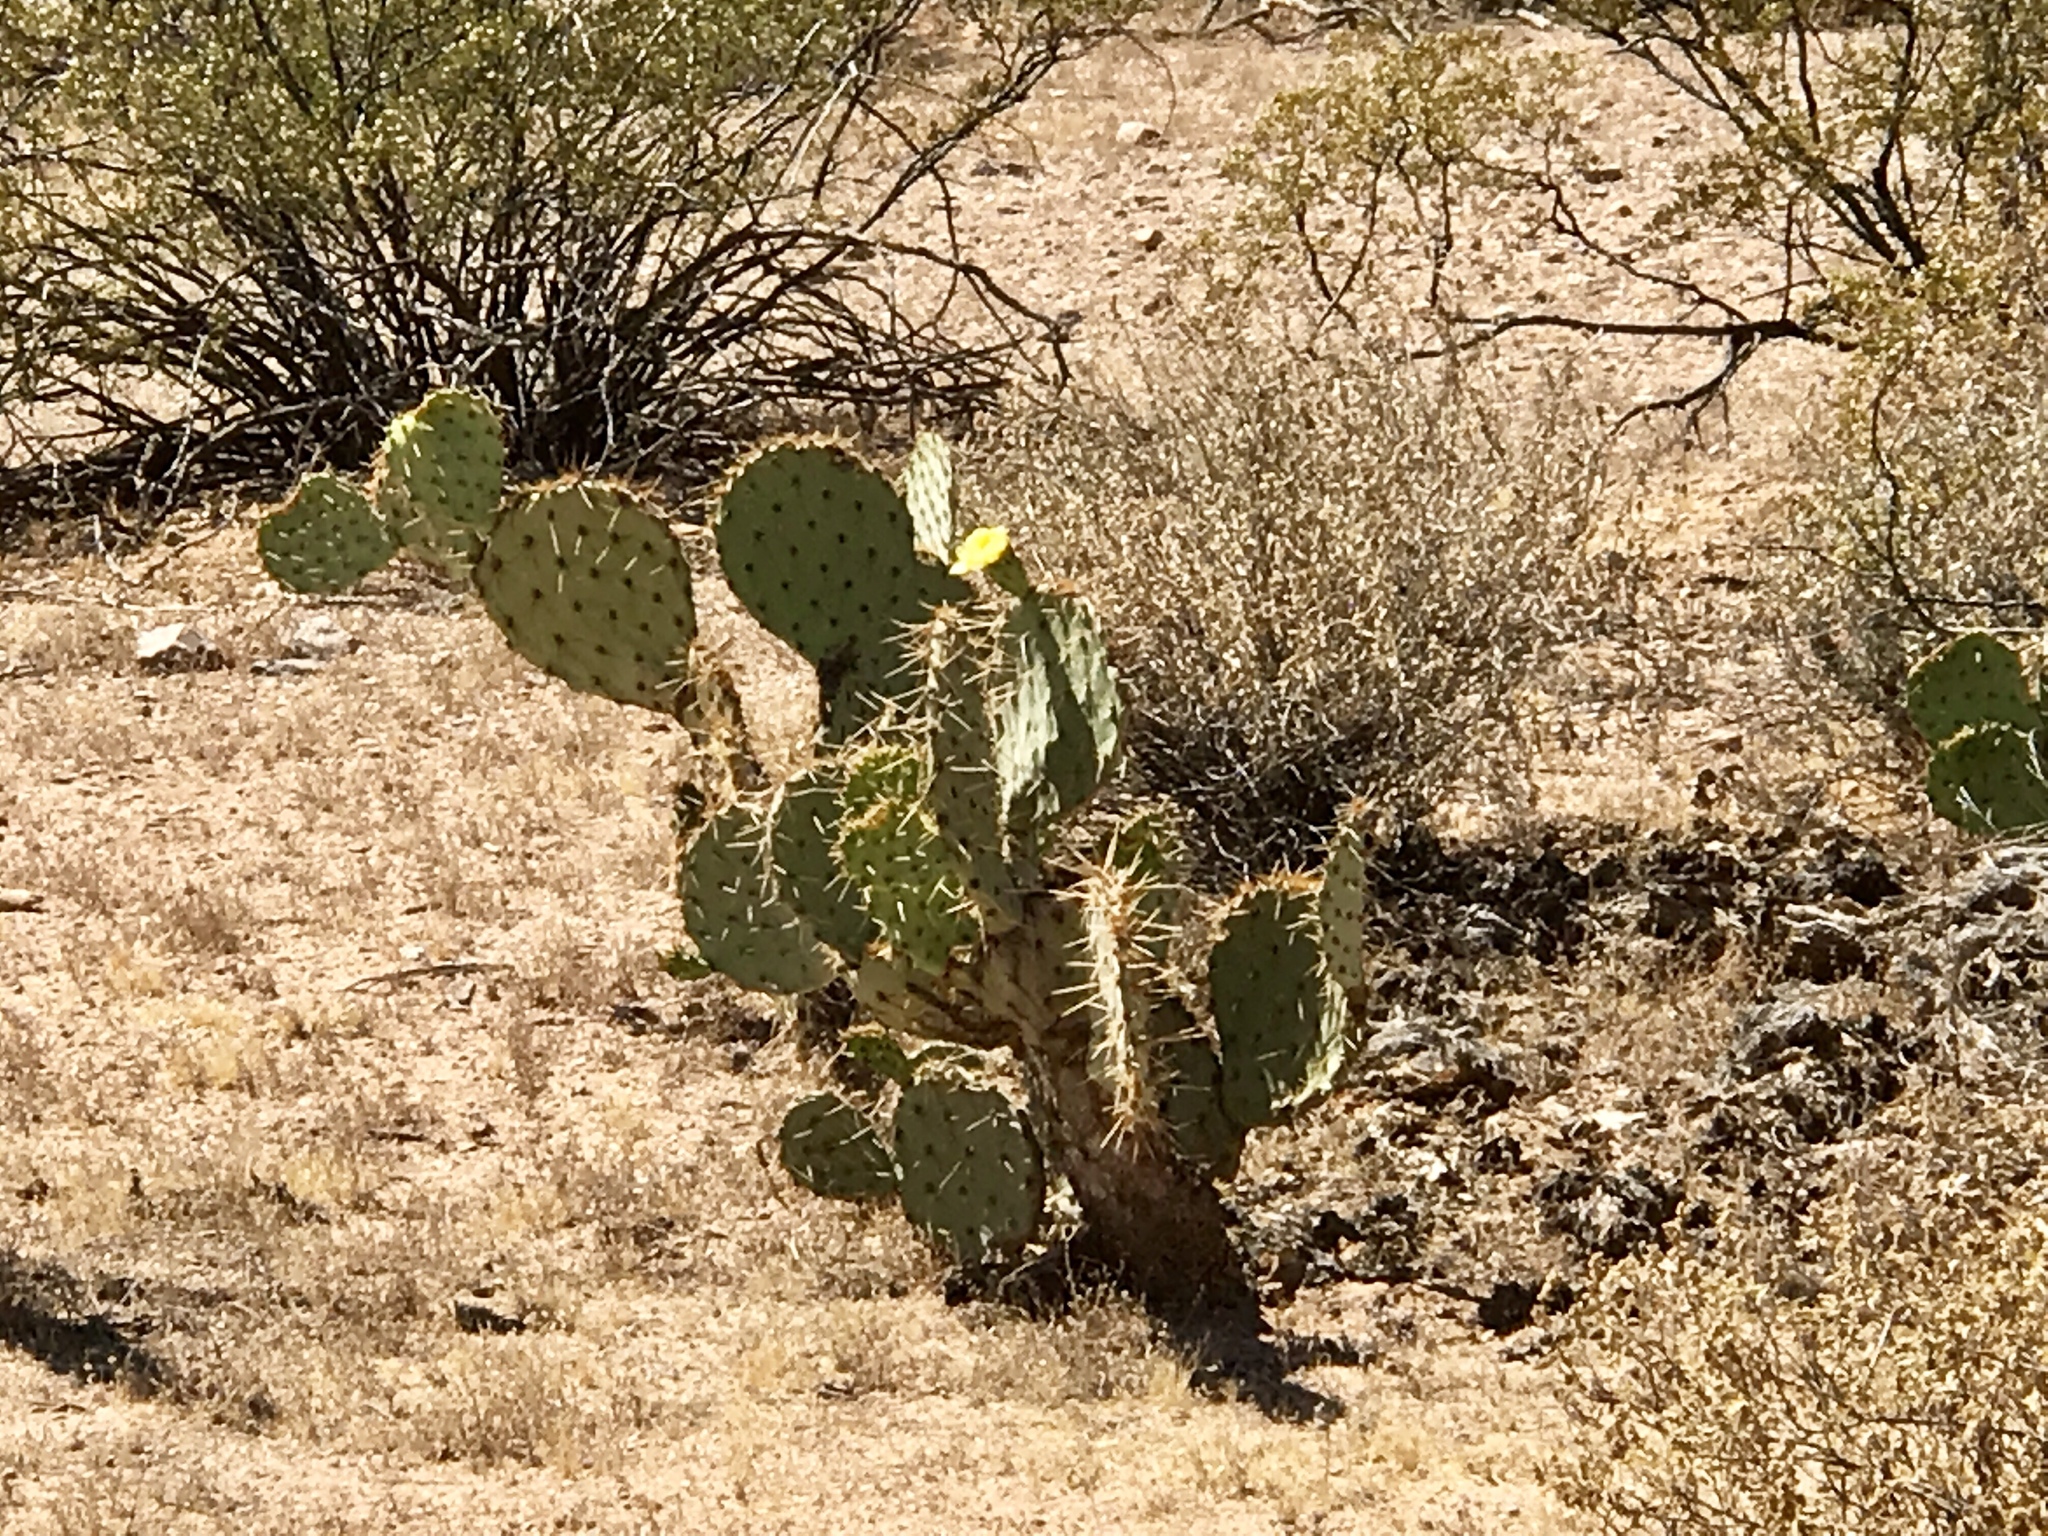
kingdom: Plantae
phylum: Tracheophyta
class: Magnoliopsida
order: Caryophyllales
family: Cactaceae
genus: Opuntia
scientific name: Opuntia engelmannii
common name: Cactus-apple
